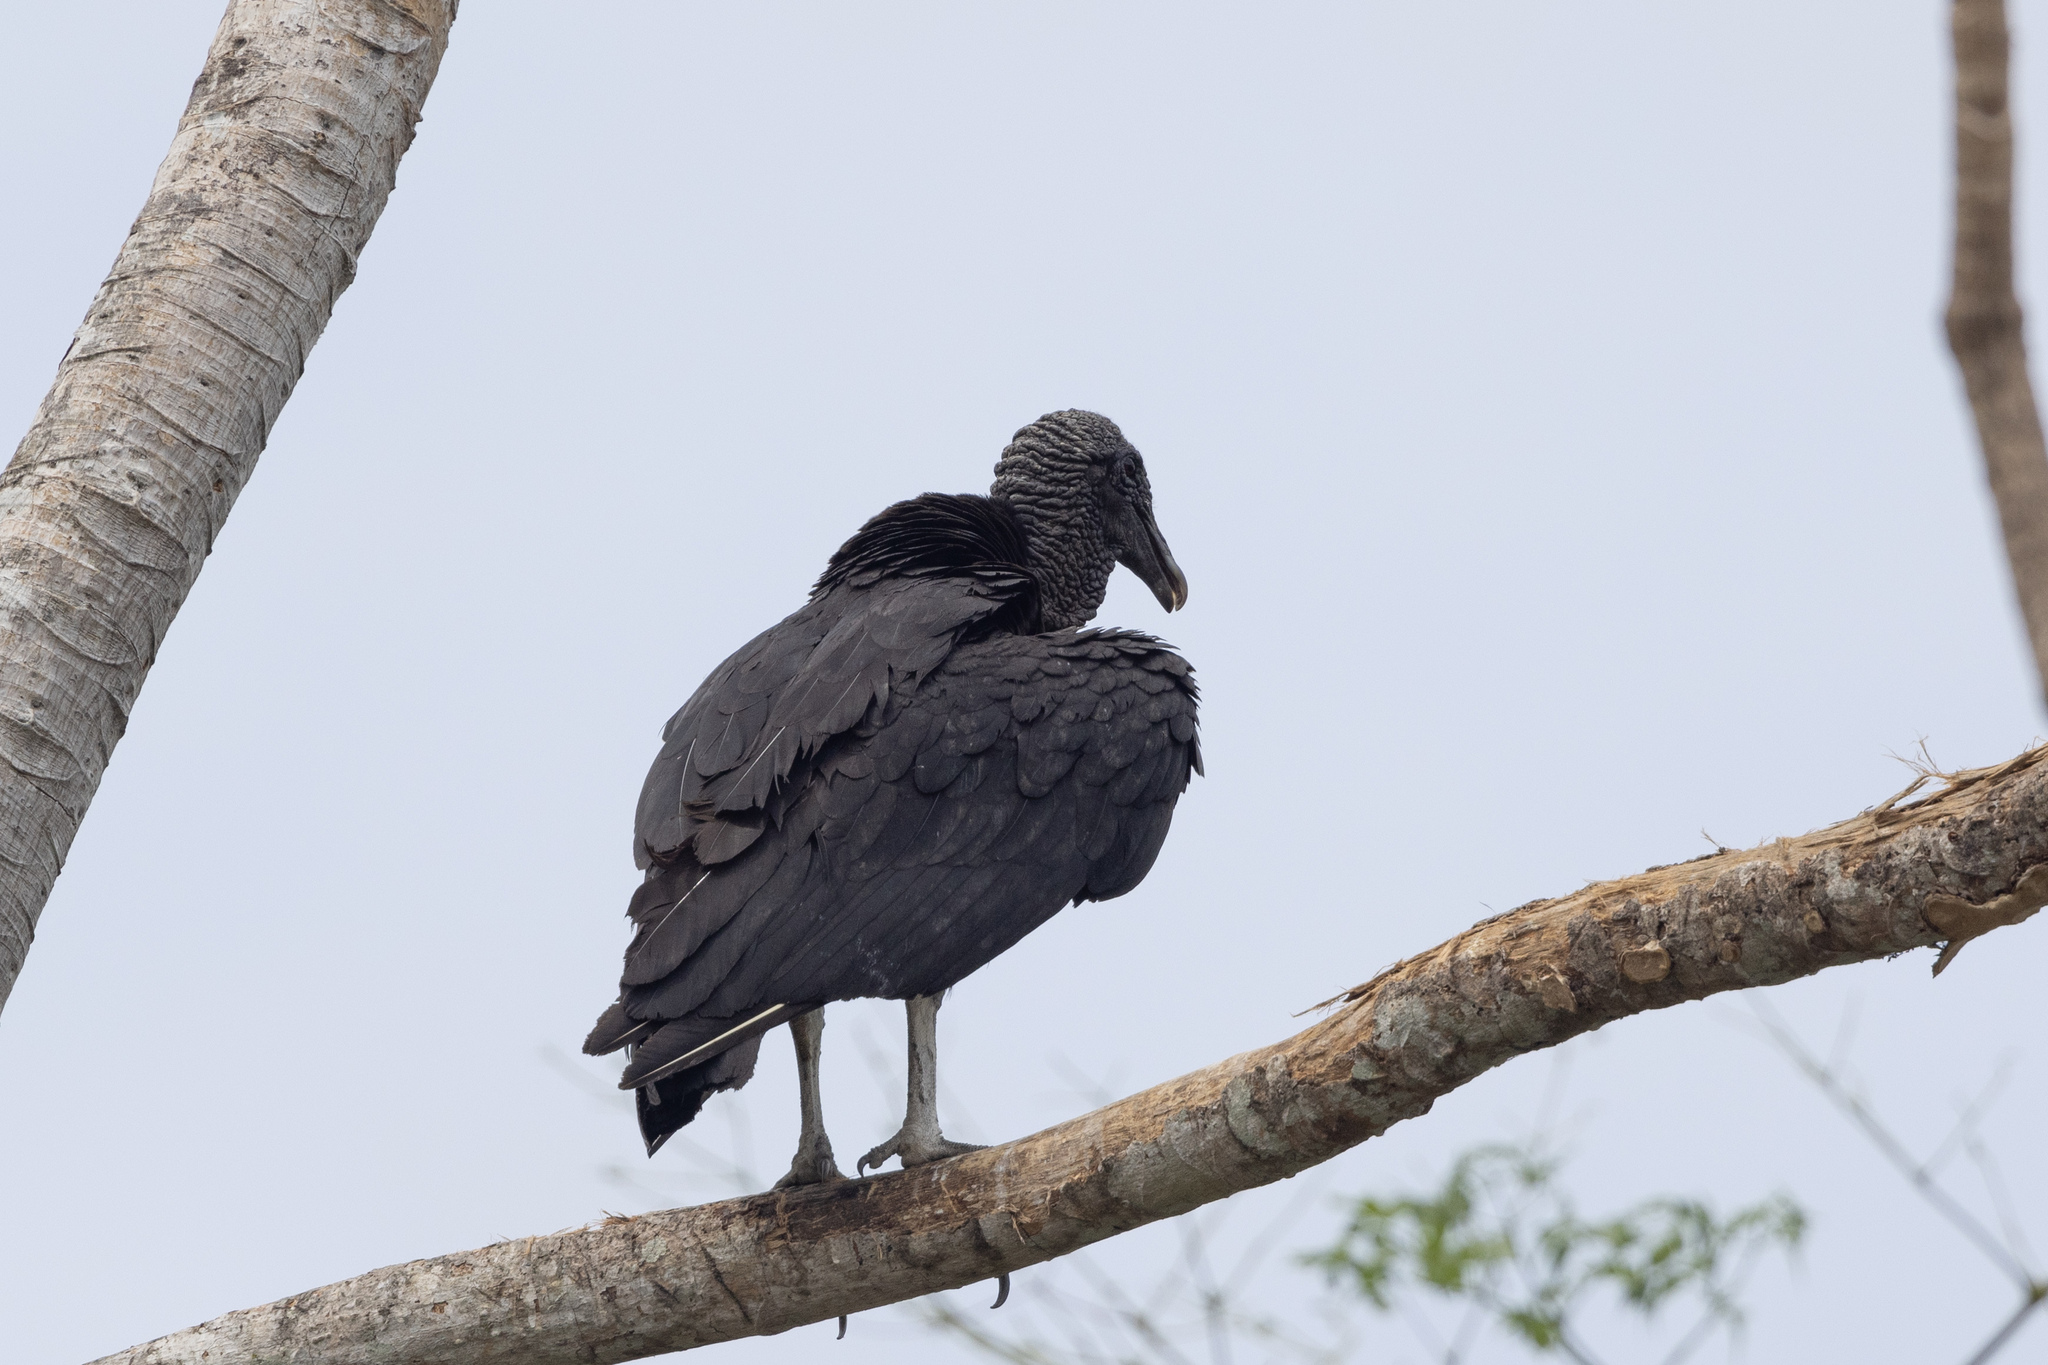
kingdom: Animalia
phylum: Chordata
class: Aves
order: Accipitriformes
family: Cathartidae
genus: Coragyps
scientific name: Coragyps atratus
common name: Black vulture
